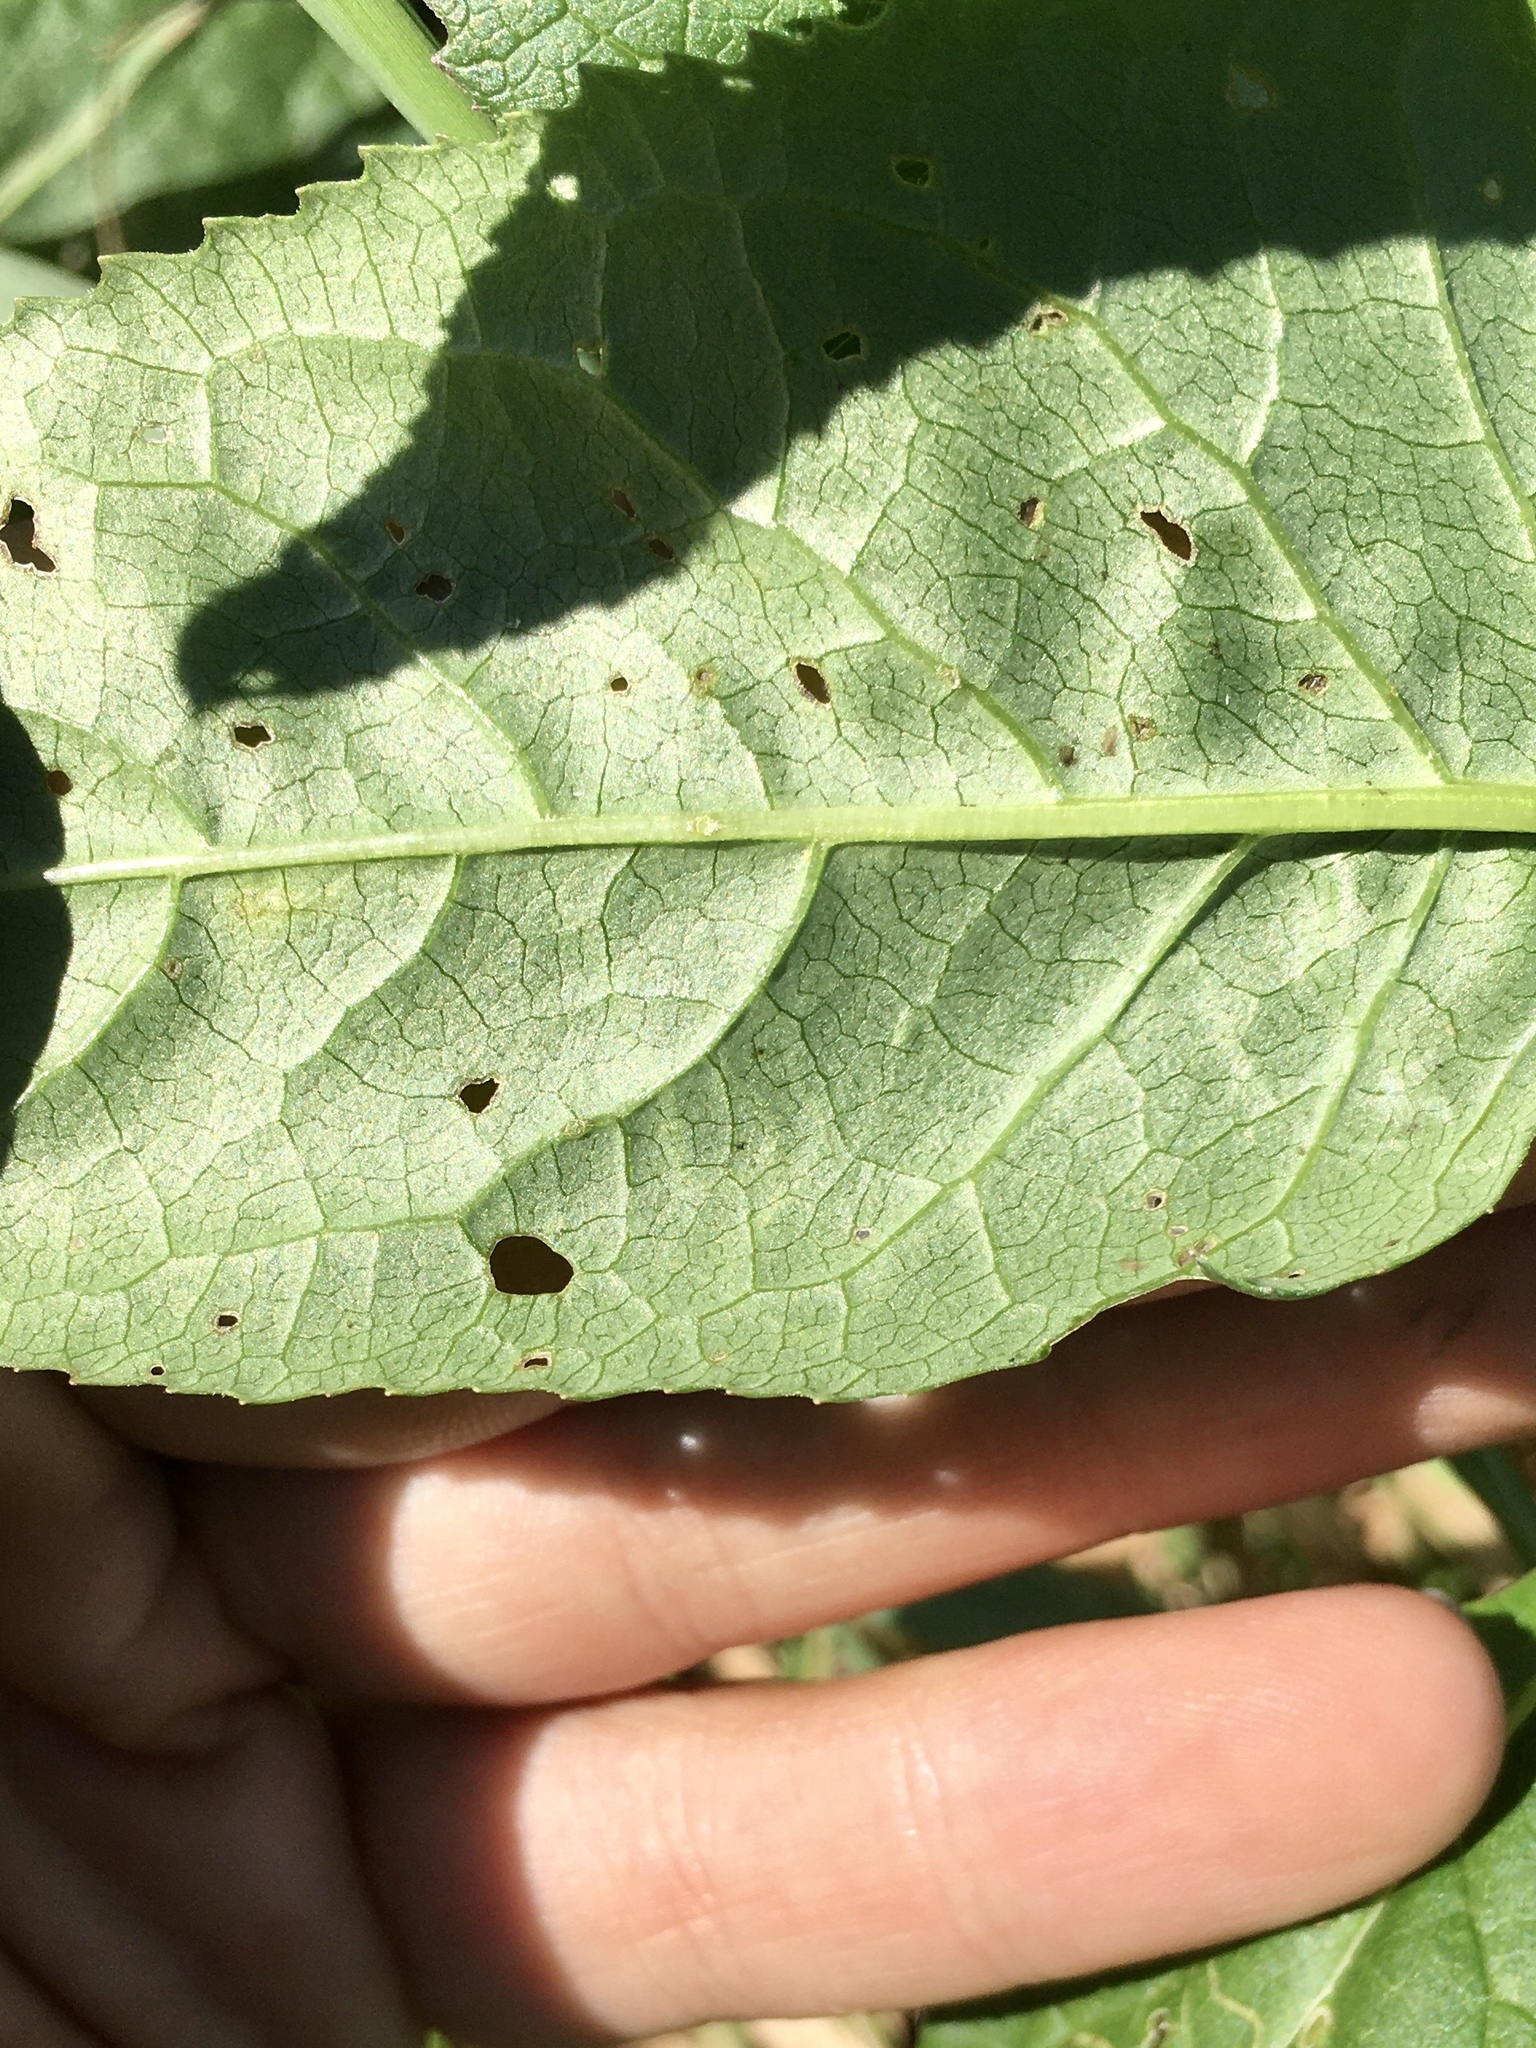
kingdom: Animalia
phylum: Arthropoda
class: Insecta
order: Lepidoptera
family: Gracillariidae
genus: Phyllocnistis
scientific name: Phyllocnistis insignis
